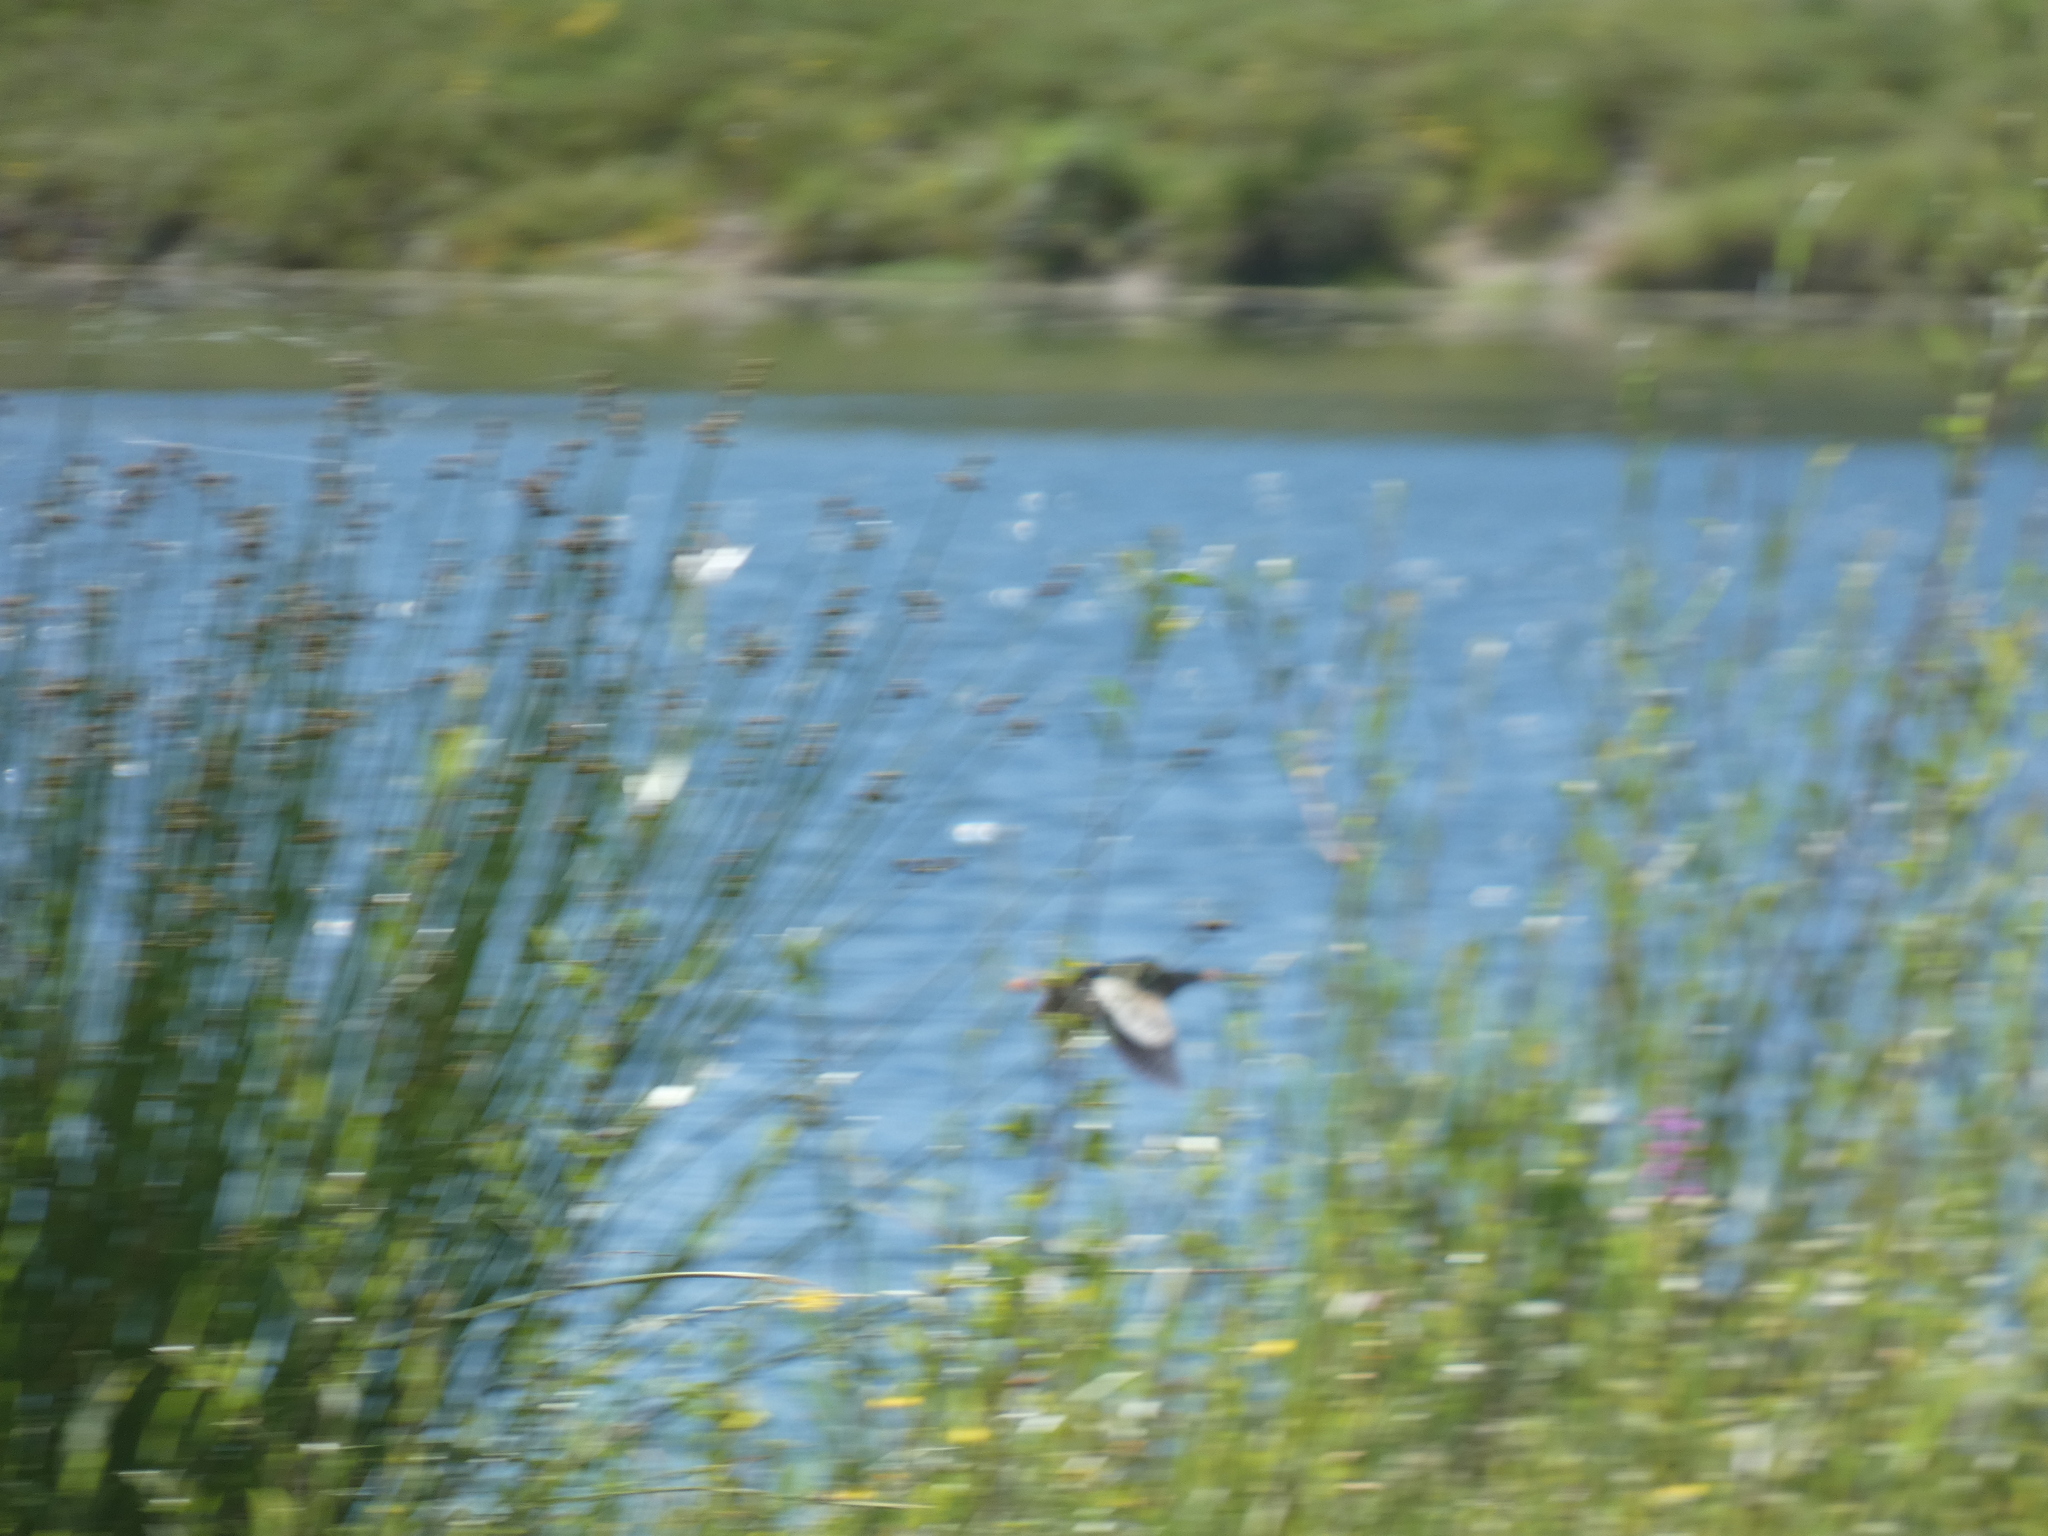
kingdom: Animalia
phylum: Chordata
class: Aves
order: Pelecaniformes
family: Ardeidae
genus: Ixobrychus
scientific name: Ixobrychus minutus
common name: Little bittern
